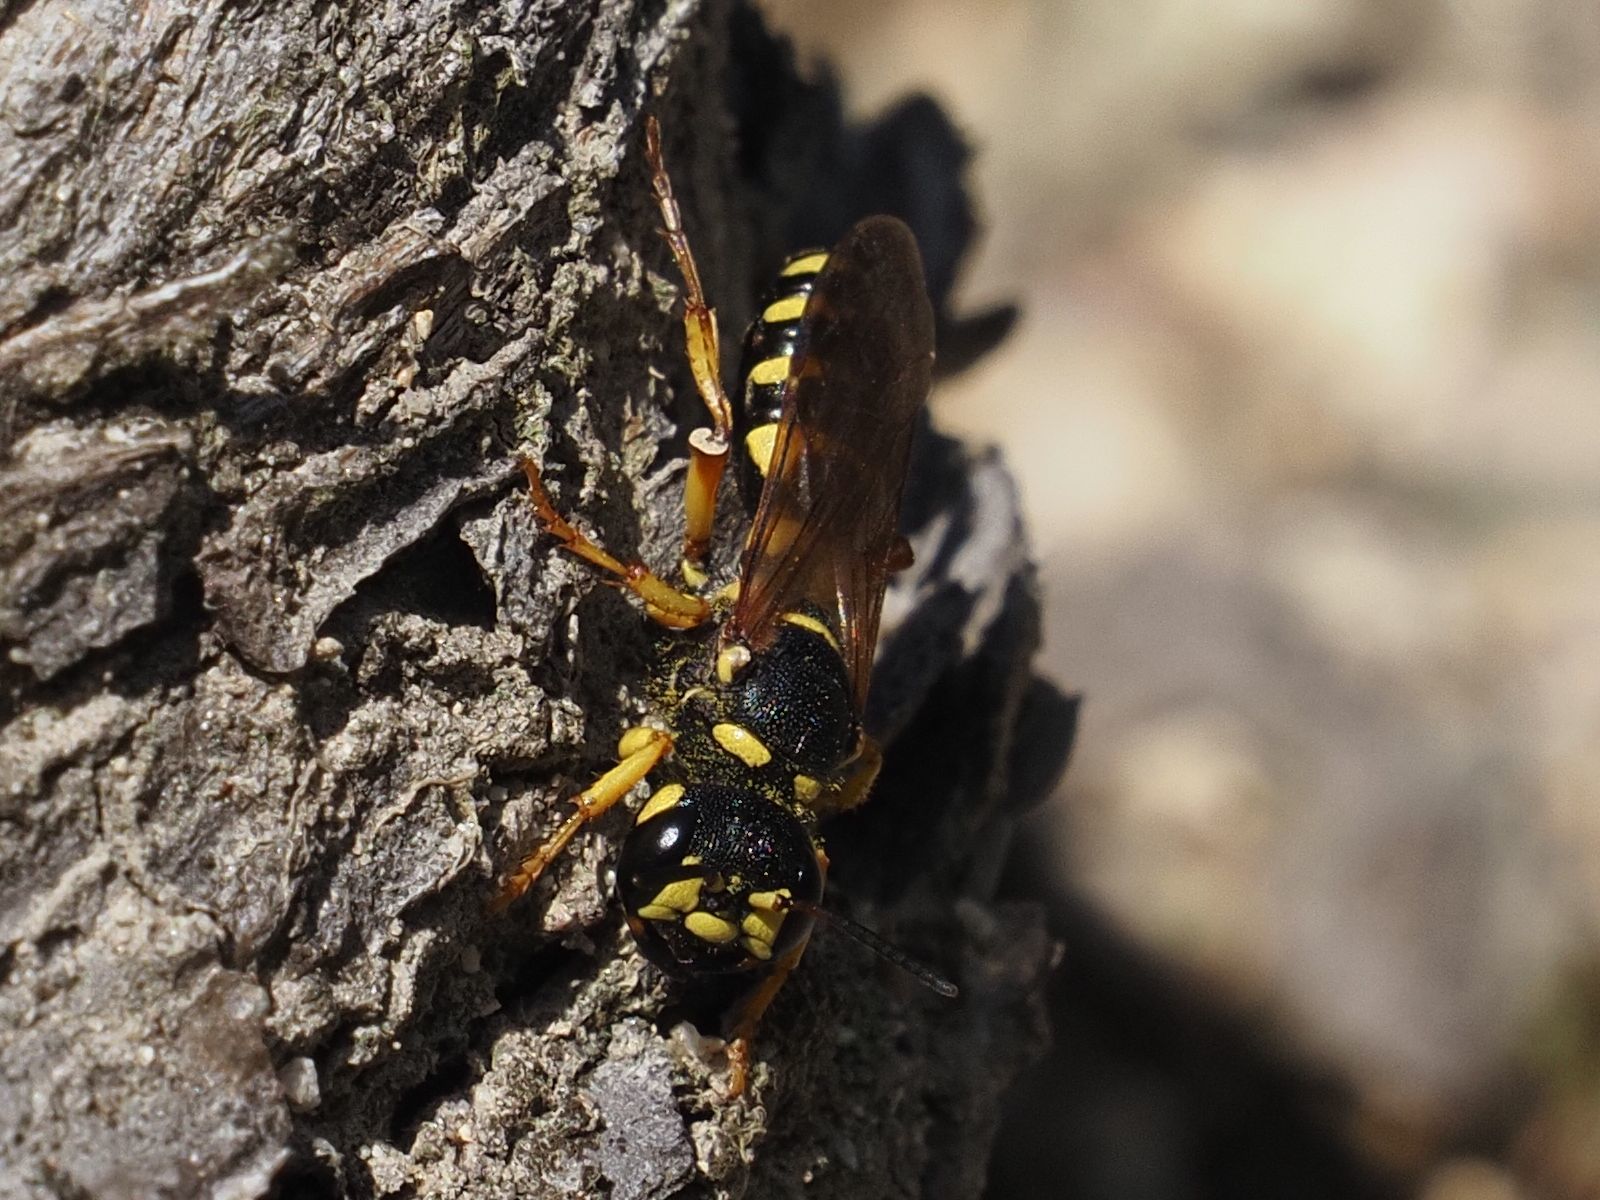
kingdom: Animalia
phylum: Arthropoda
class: Insecta
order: Hymenoptera
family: Crabronidae
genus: Cerceris
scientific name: Cerceris arenaria
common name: Sand tailed digger wasp
